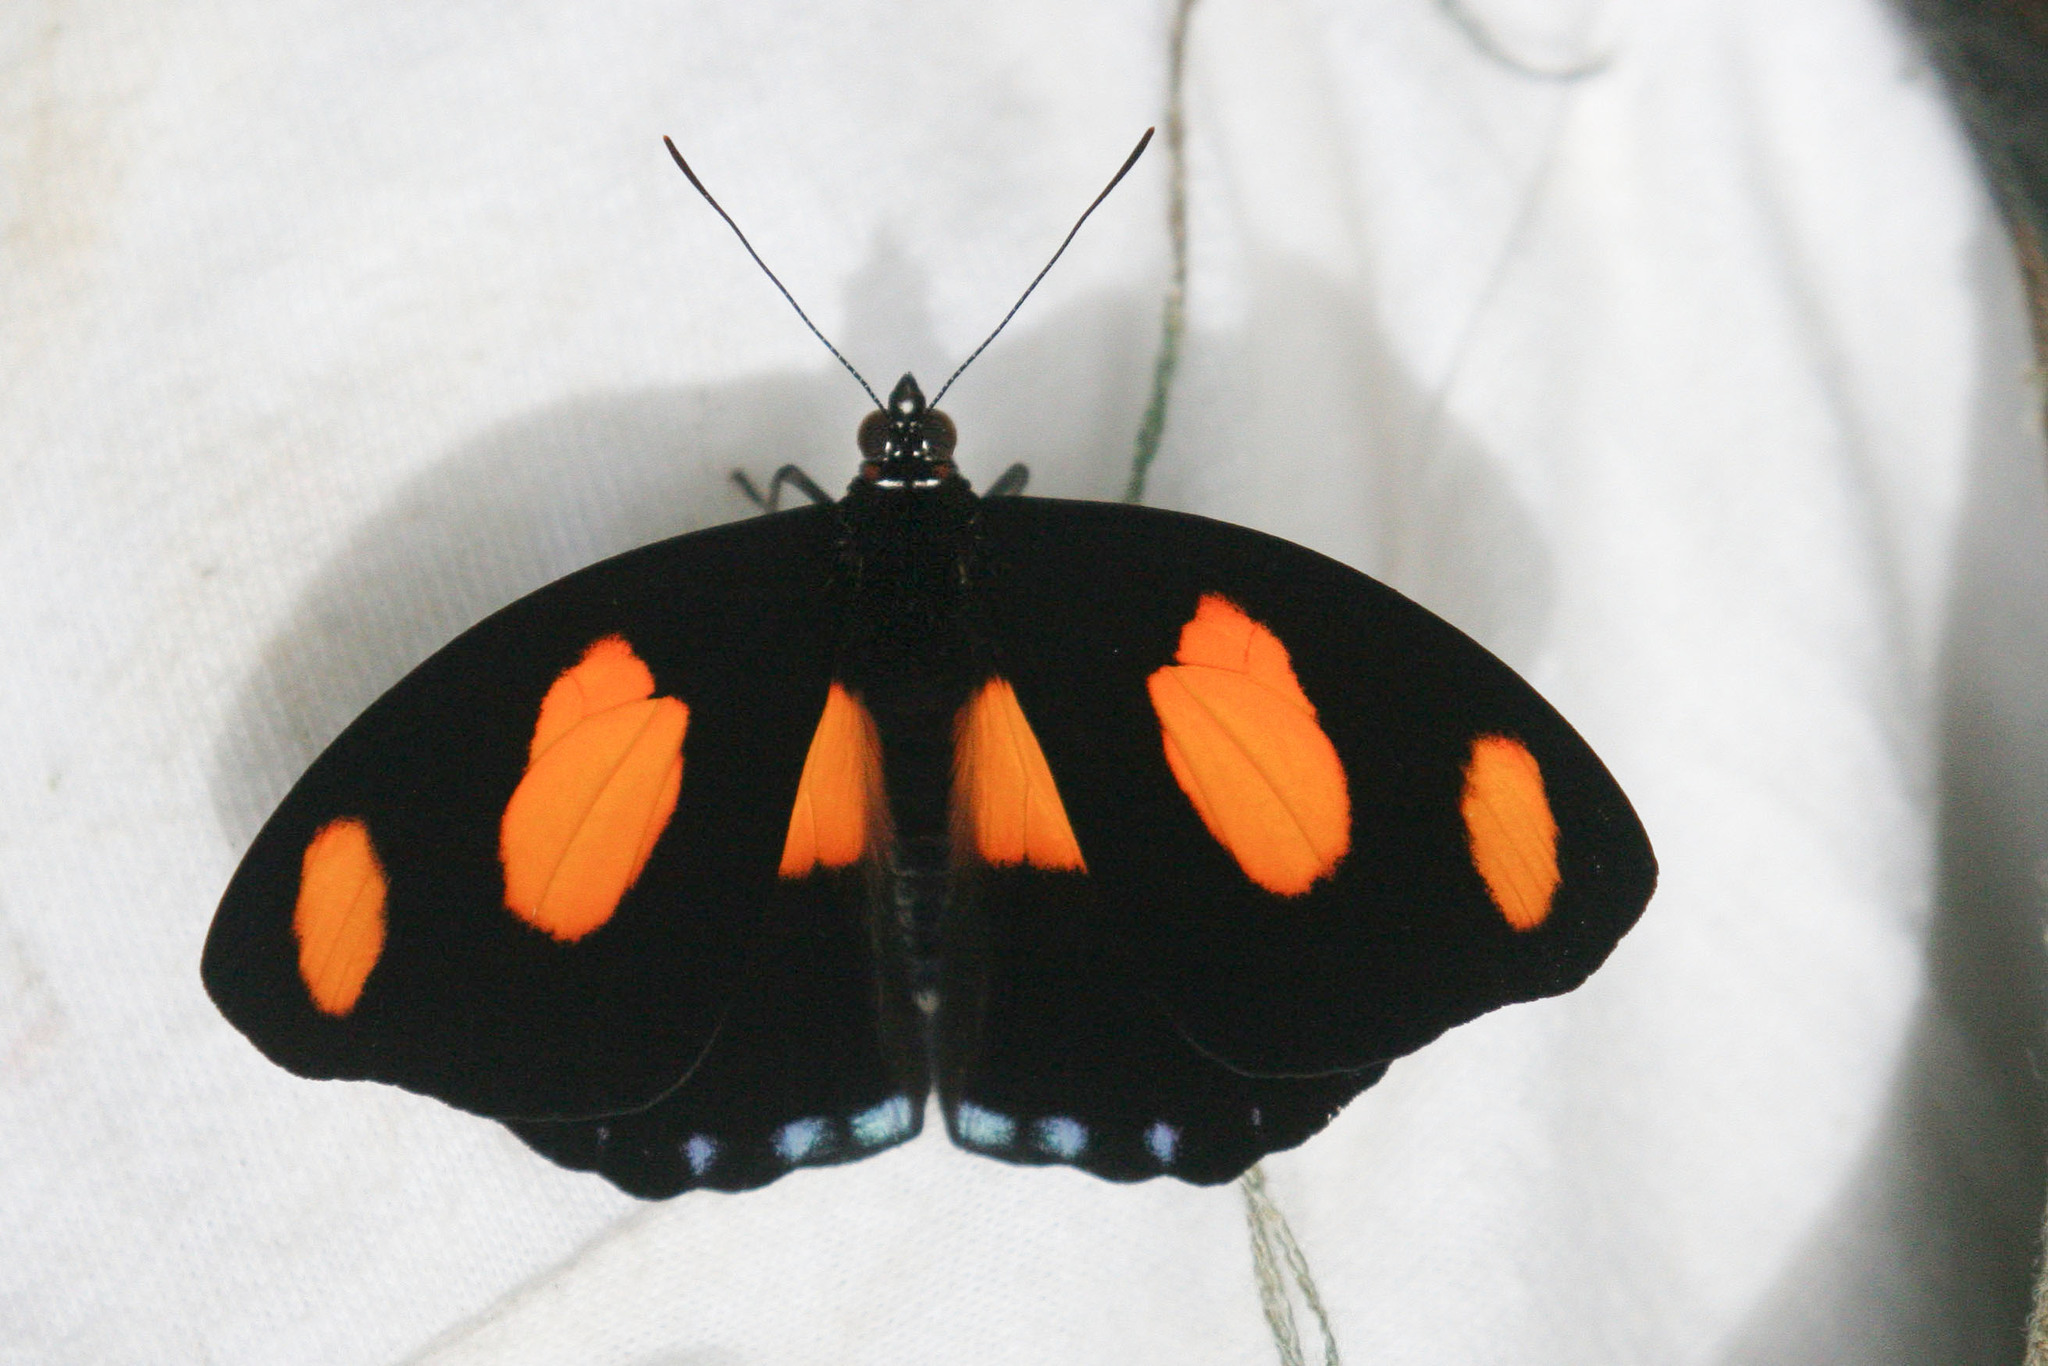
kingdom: Animalia
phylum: Arthropoda
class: Insecta
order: Lepidoptera
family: Nymphalidae
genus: Catonephele
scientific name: Catonephele numilia
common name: Blue-frosted banner
